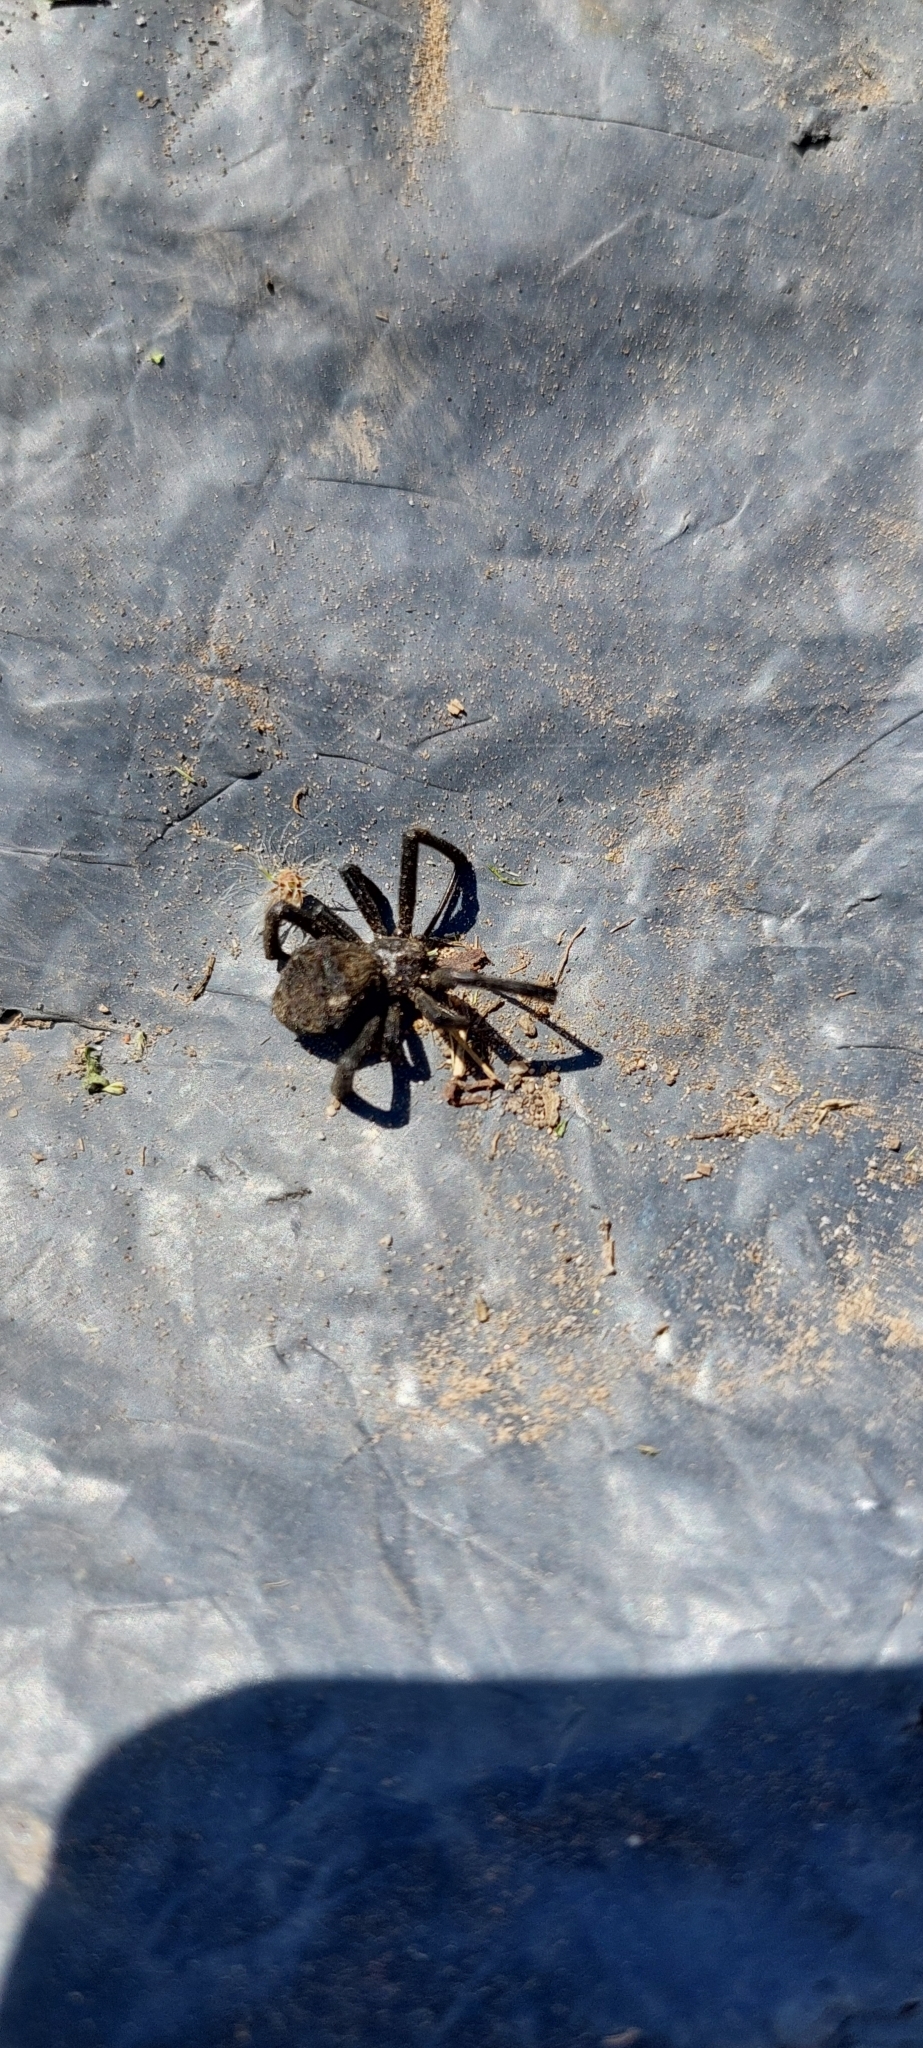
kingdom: Animalia
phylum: Arthropoda
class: Arachnida
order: Araneae
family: Theridiidae
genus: Latrodectus
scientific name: Latrodectus mirabilis
